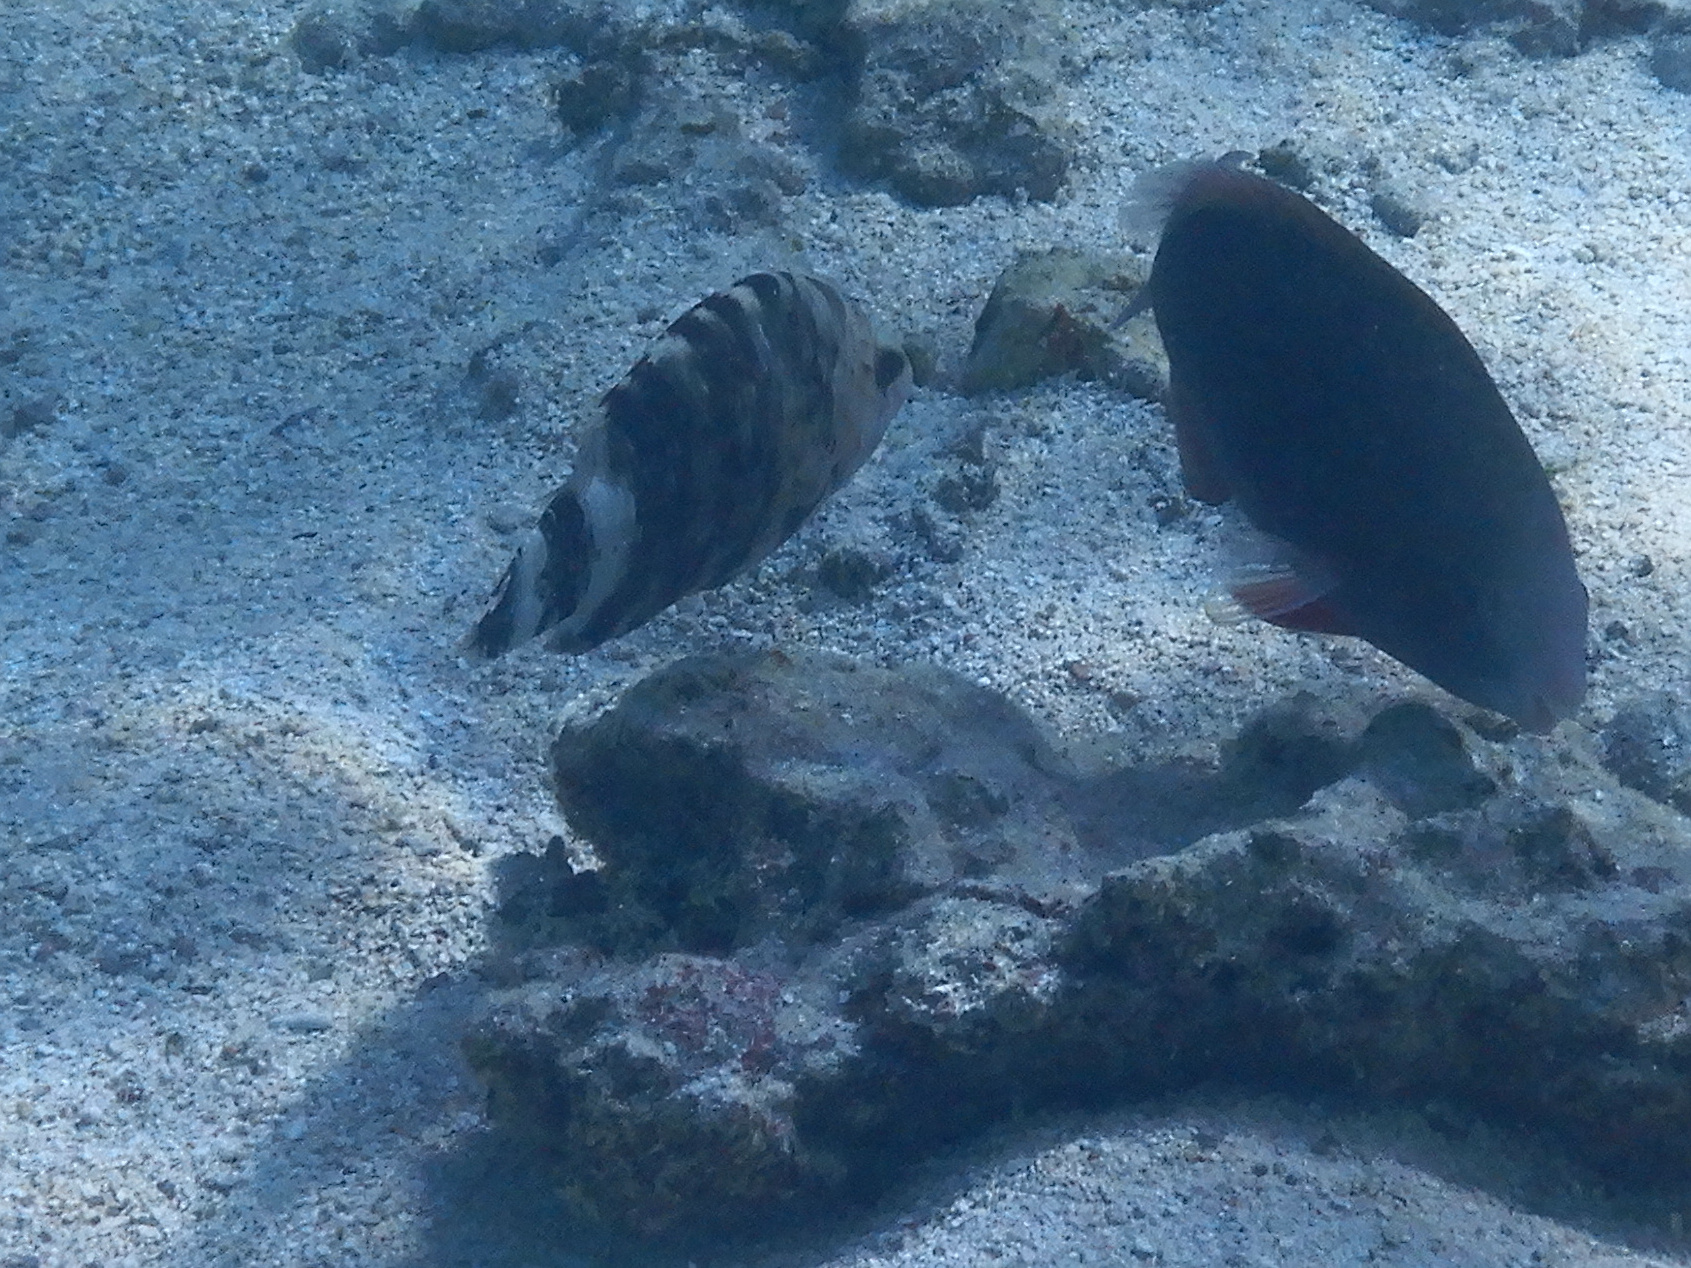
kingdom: Animalia
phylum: Chordata
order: Perciformes
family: Labridae
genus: Cheilinus
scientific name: Cheilinus trilobatus
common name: Tripletail maori wrasse
